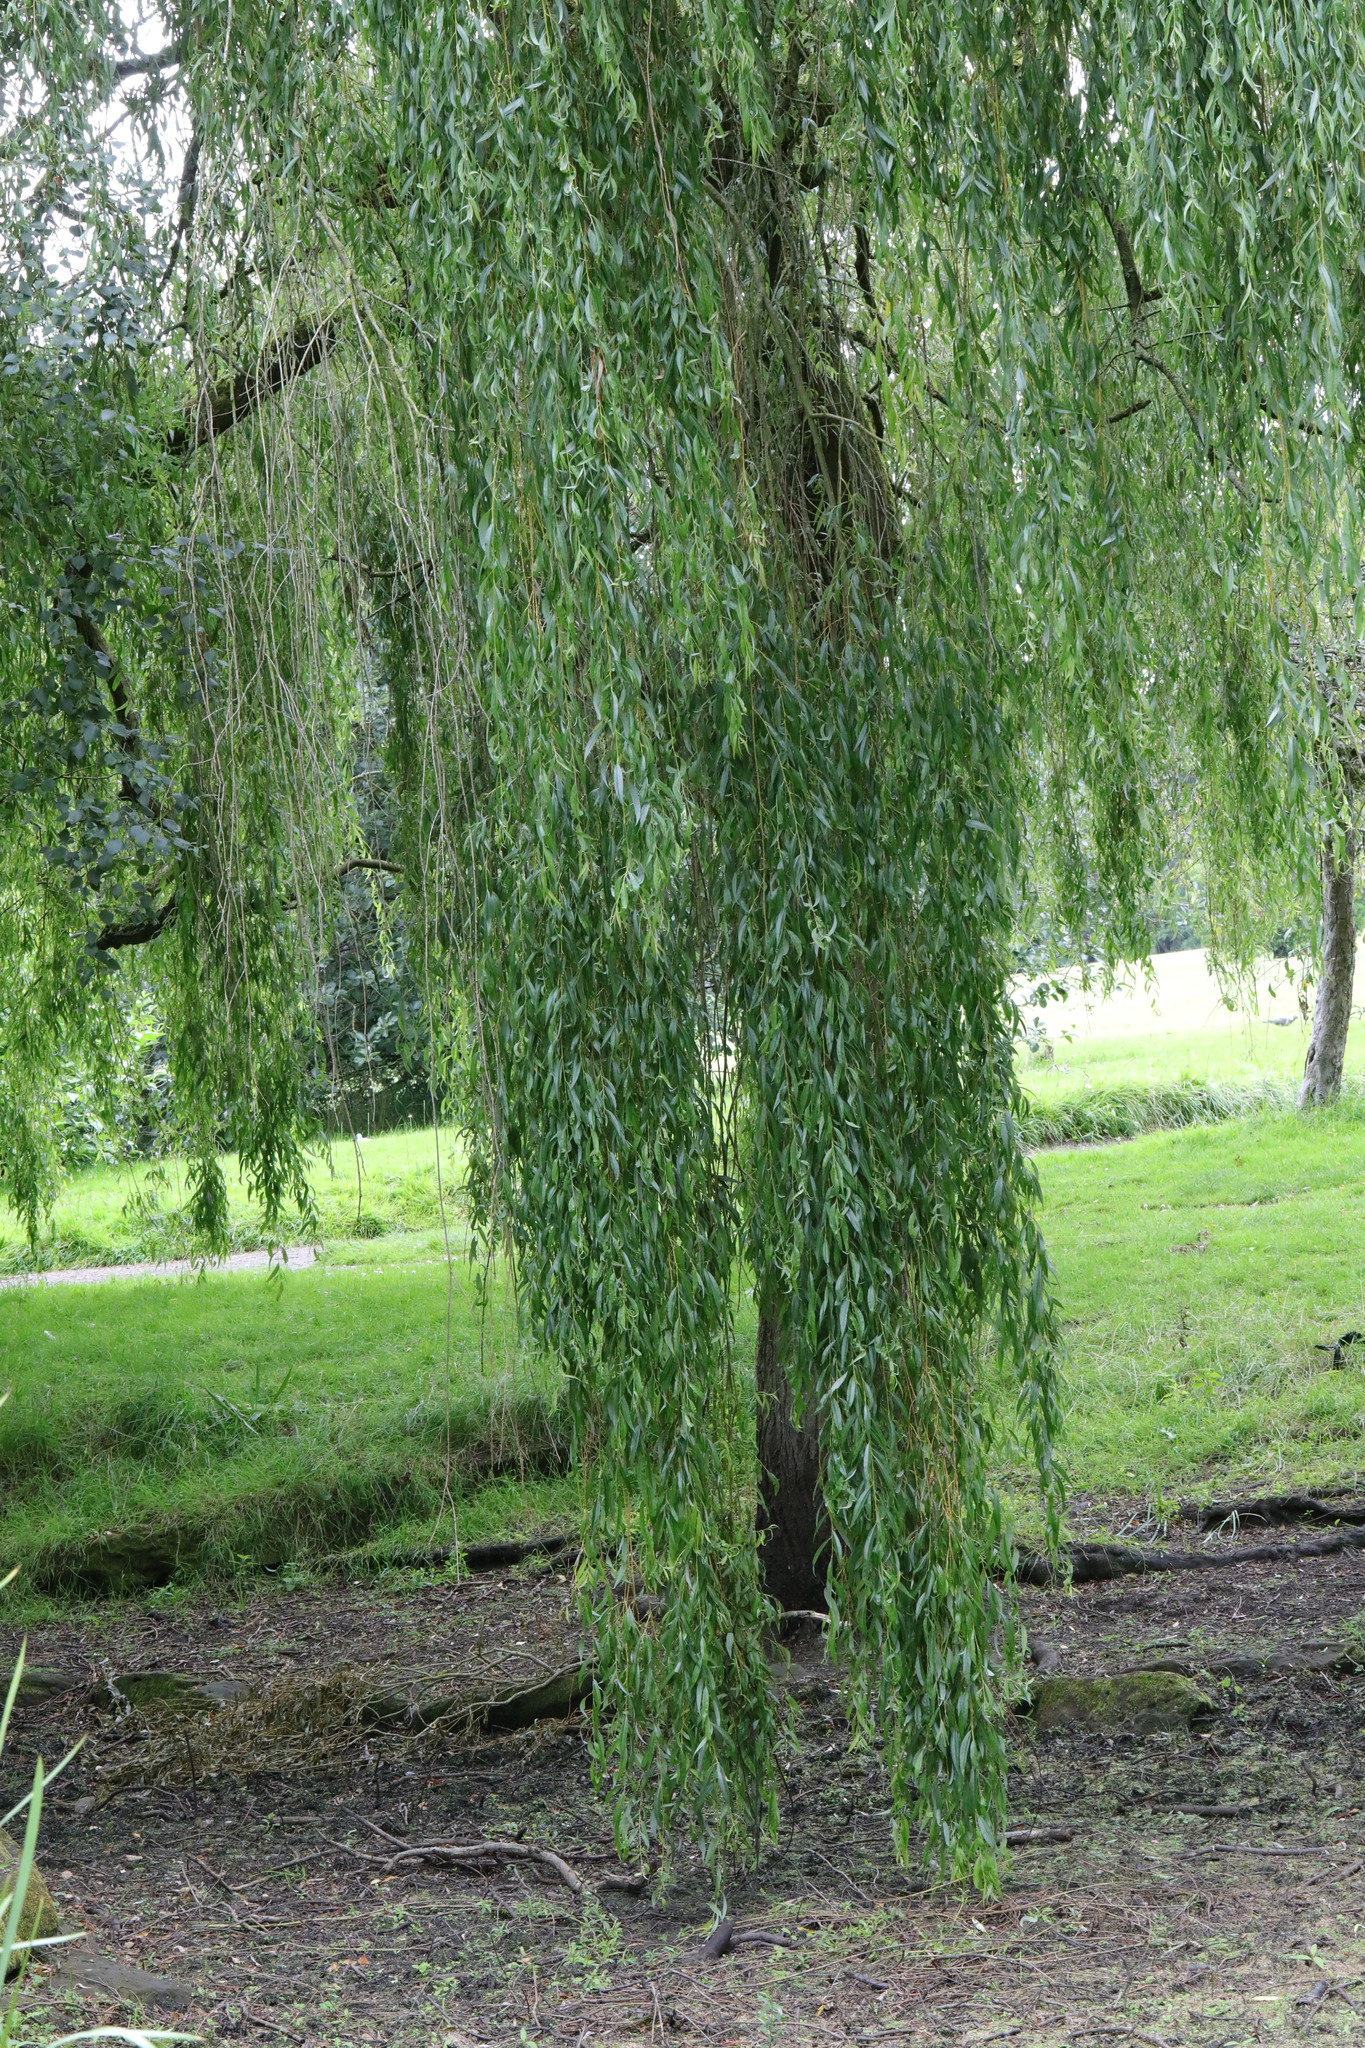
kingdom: Plantae
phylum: Tracheophyta
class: Magnoliopsida
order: Malpighiales
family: Salicaceae
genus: Salix
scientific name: Salix pendulina
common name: Wisconsin weeping willow
